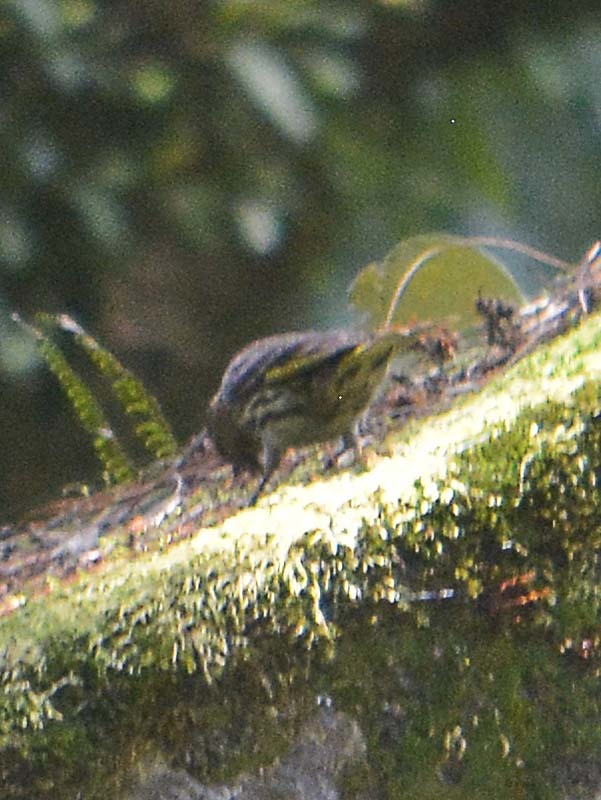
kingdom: Animalia
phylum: Chordata
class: Aves
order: Passeriformes
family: Fringillidae
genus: Spinus
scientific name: Spinus pinus
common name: Pine siskin
